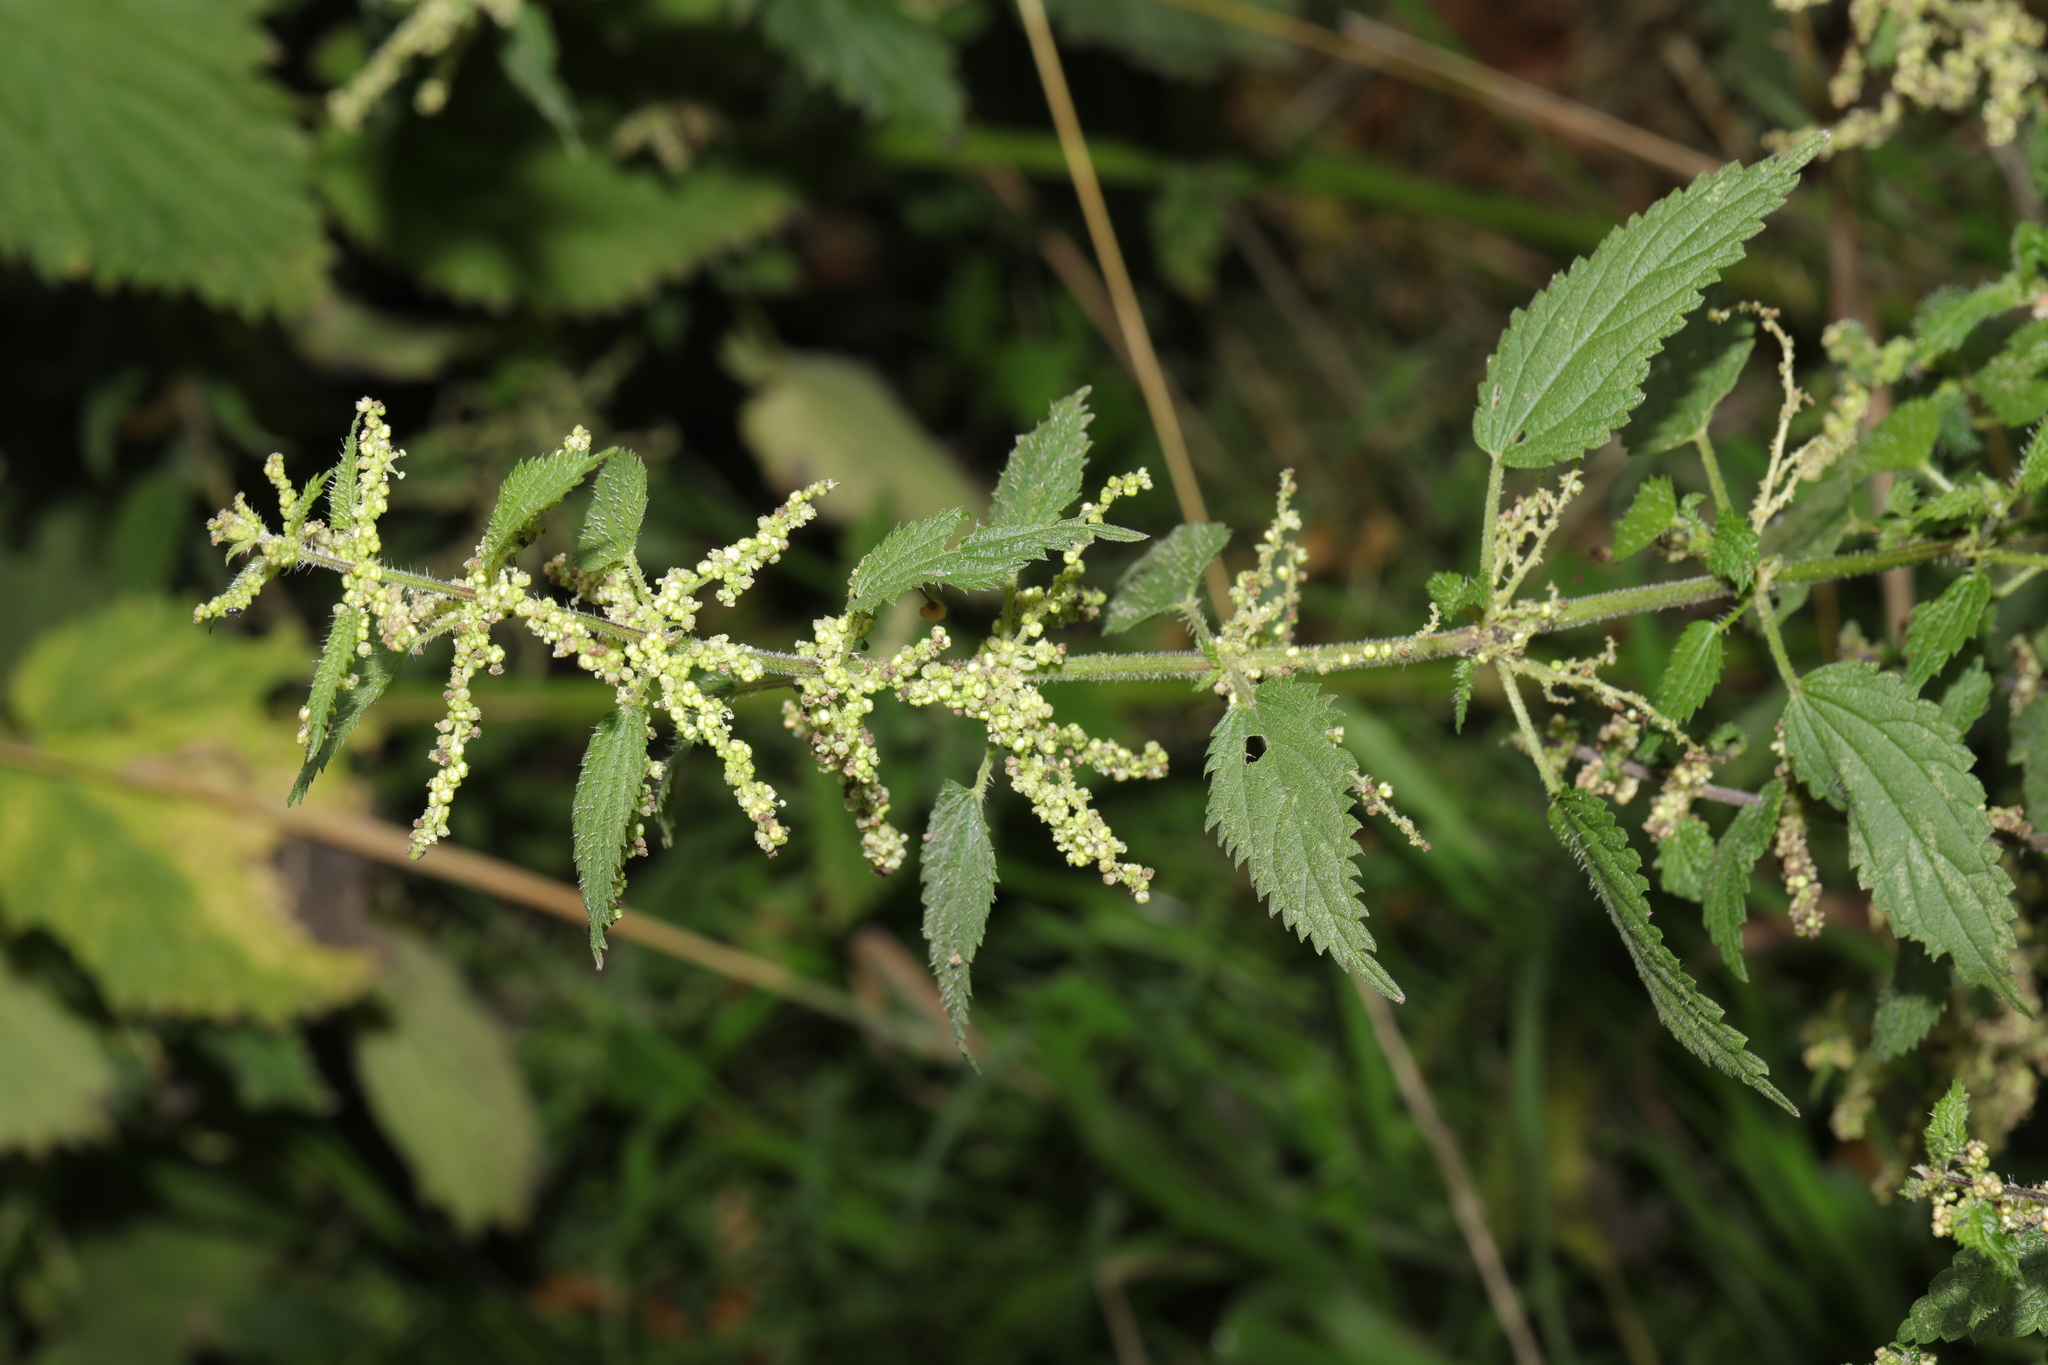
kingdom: Plantae
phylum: Tracheophyta
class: Magnoliopsida
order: Rosales
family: Urticaceae
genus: Urtica
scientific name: Urtica dioica
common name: Common nettle
